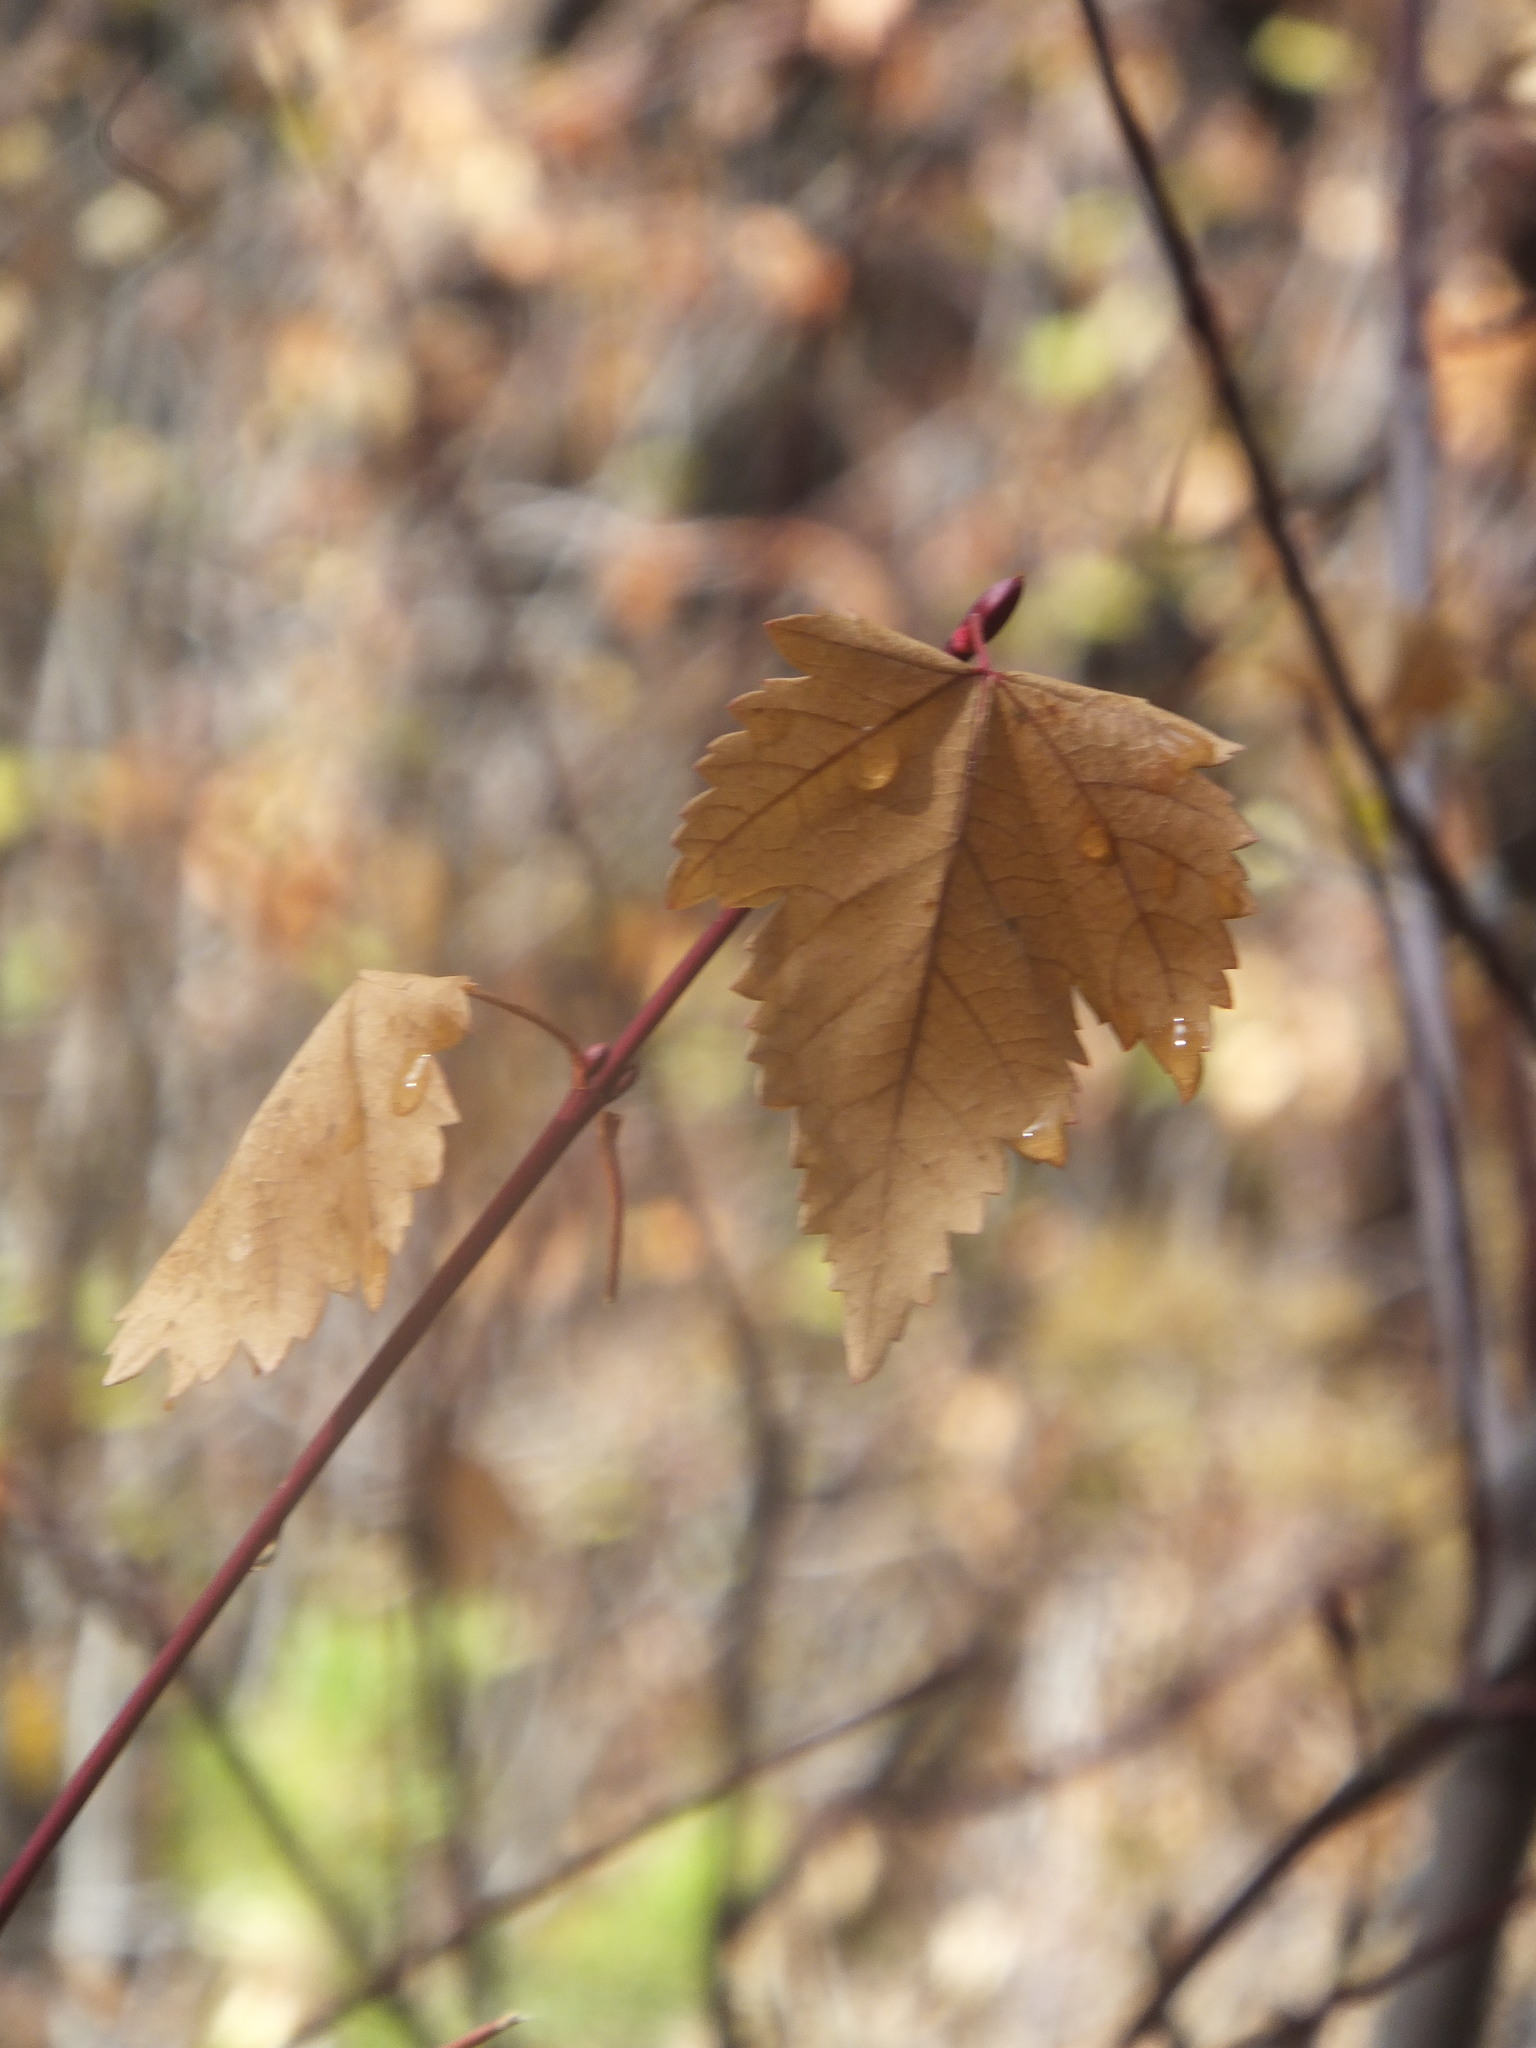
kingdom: Plantae
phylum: Tracheophyta
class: Magnoliopsida
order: Sapindales
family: Sapindaceae
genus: Acer
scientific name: Acer glabrum
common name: Rocky mountain maple
